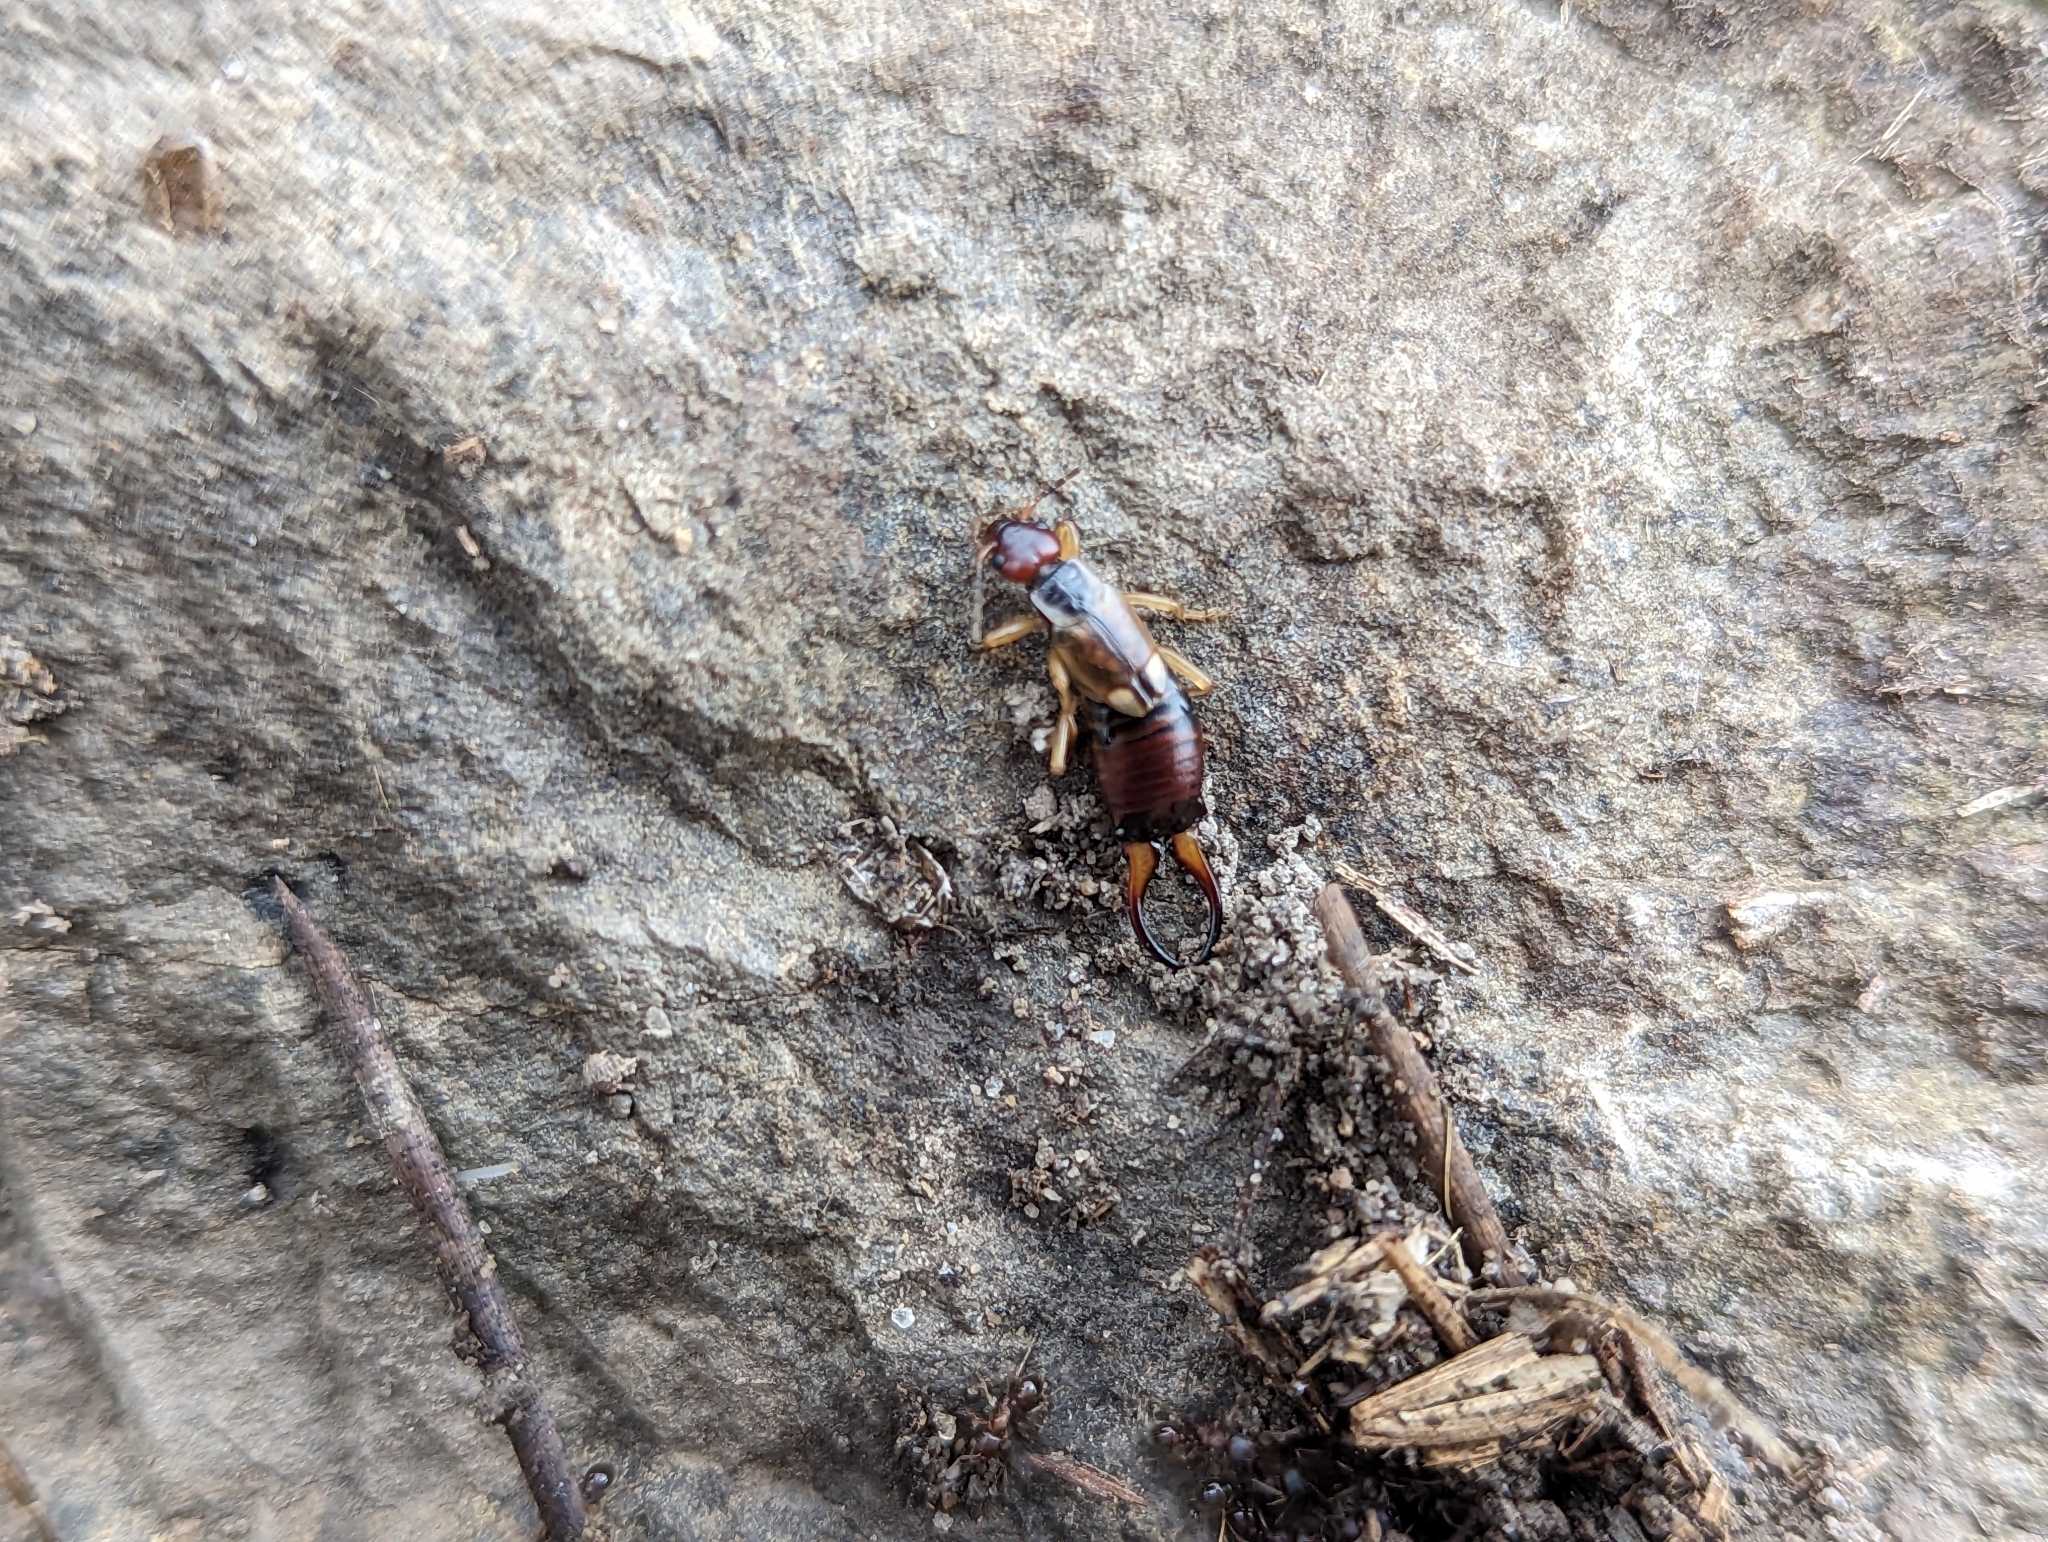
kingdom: Animalia
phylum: Arthropoda
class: Insecta
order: Dermaptera
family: Forficulidae
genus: Forficula
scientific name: Forficula dentata
